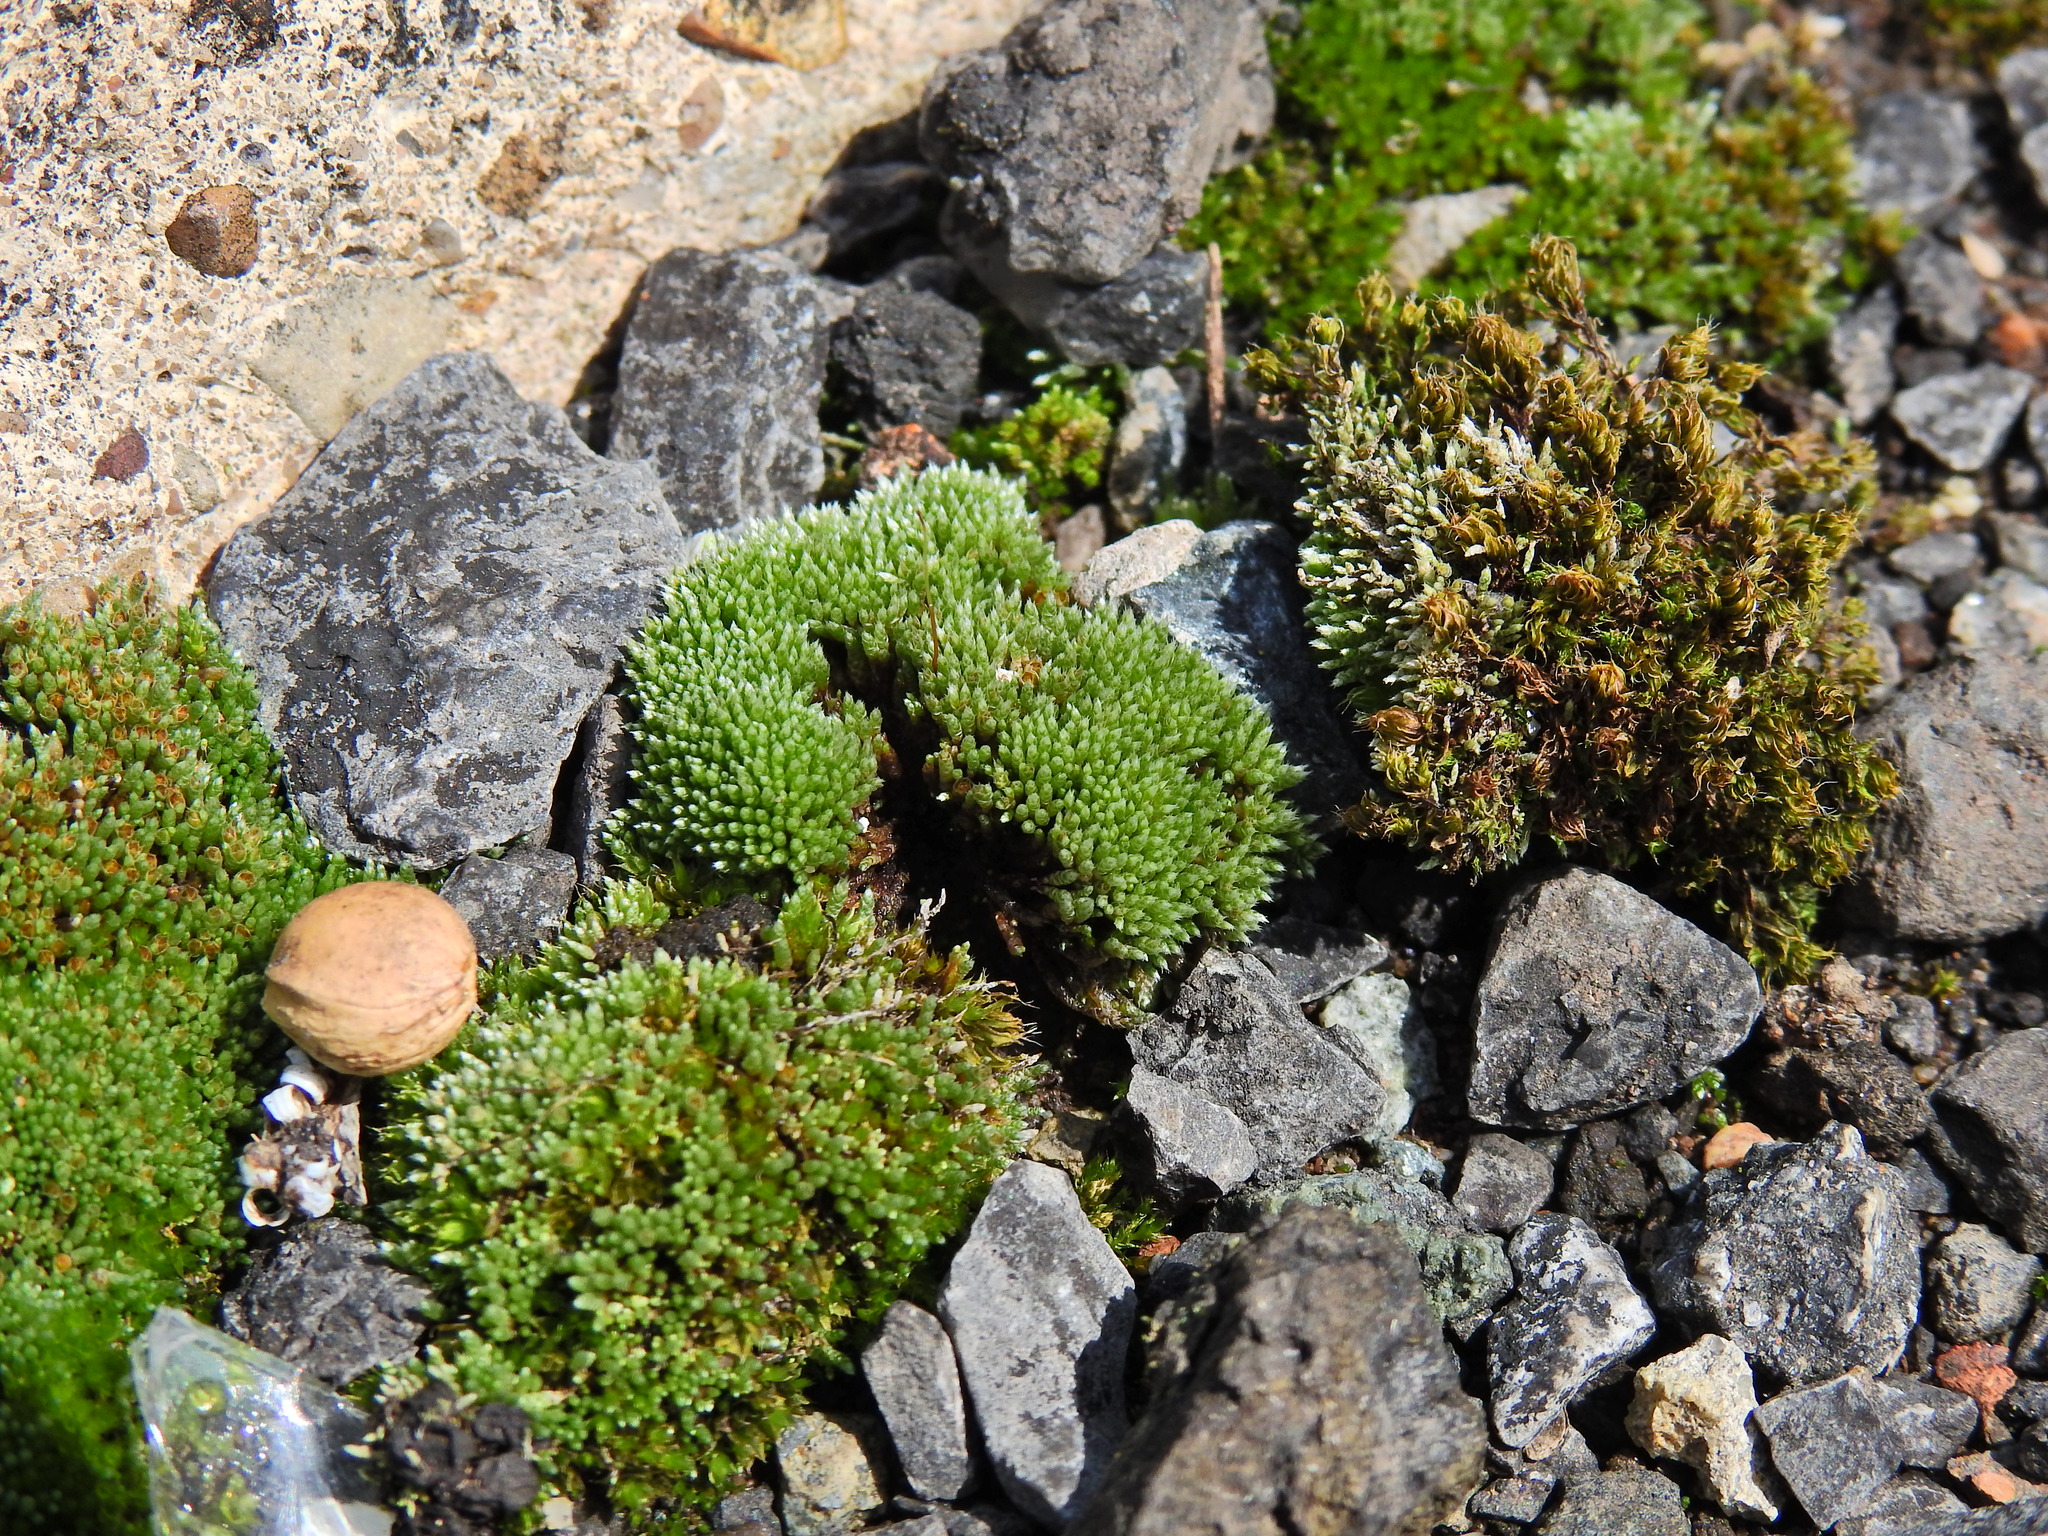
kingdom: Plantae
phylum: Bryophyta
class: Bryopsida
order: Bryales
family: Bryaceae
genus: Bryum
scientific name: Bryum argenteum
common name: Silver-moss
